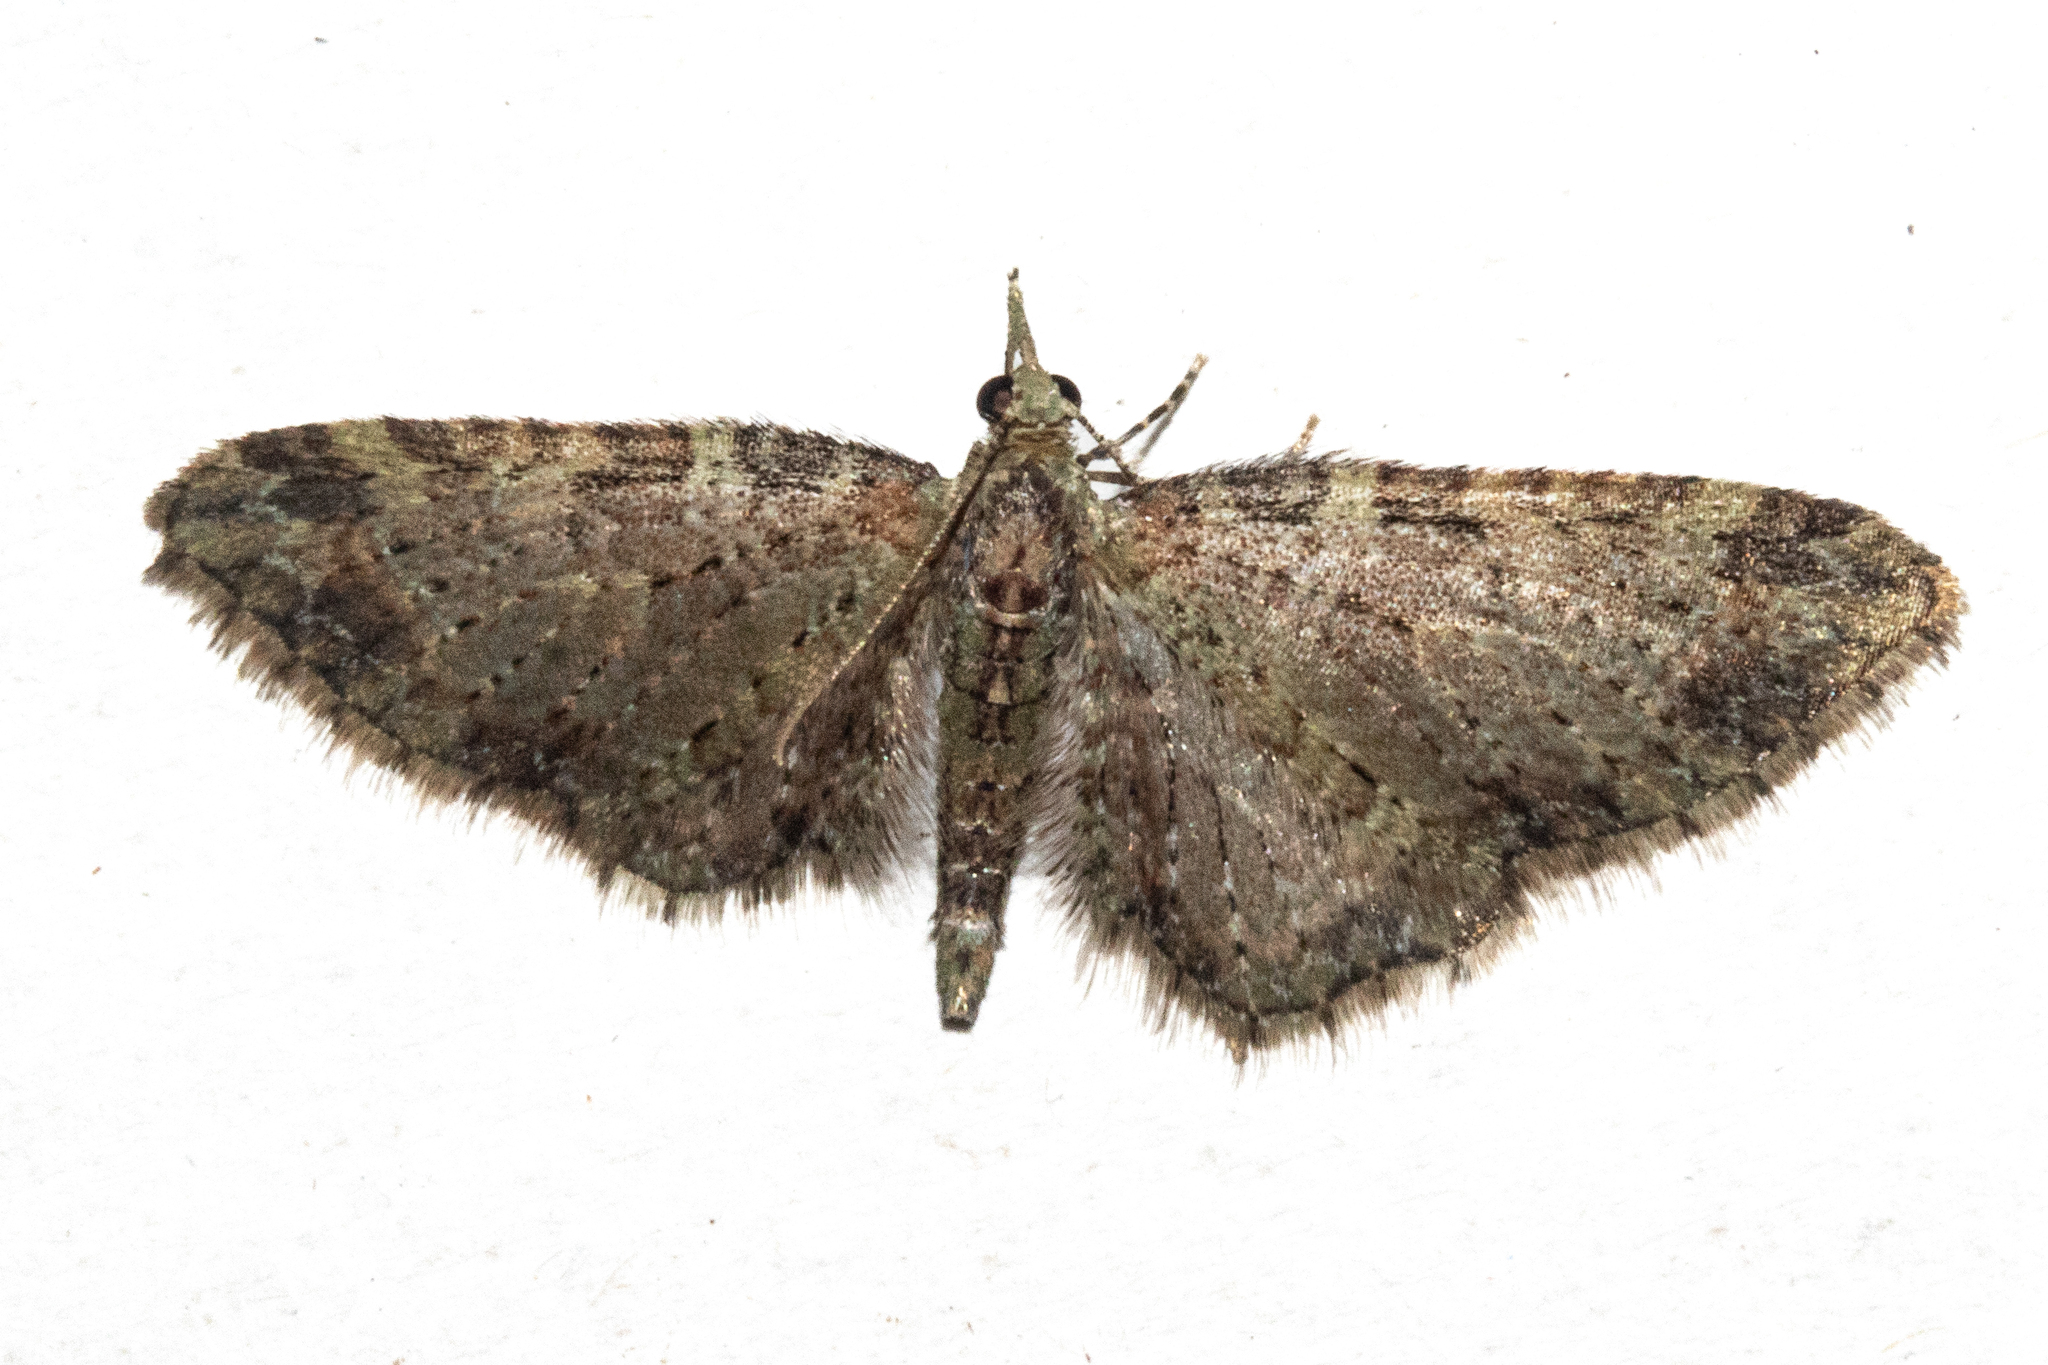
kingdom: Animalia
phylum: Arthropoda
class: Insecta
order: Lepidoptera
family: Geometridae
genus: Pasiphila
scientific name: Pasiphila plinthina
